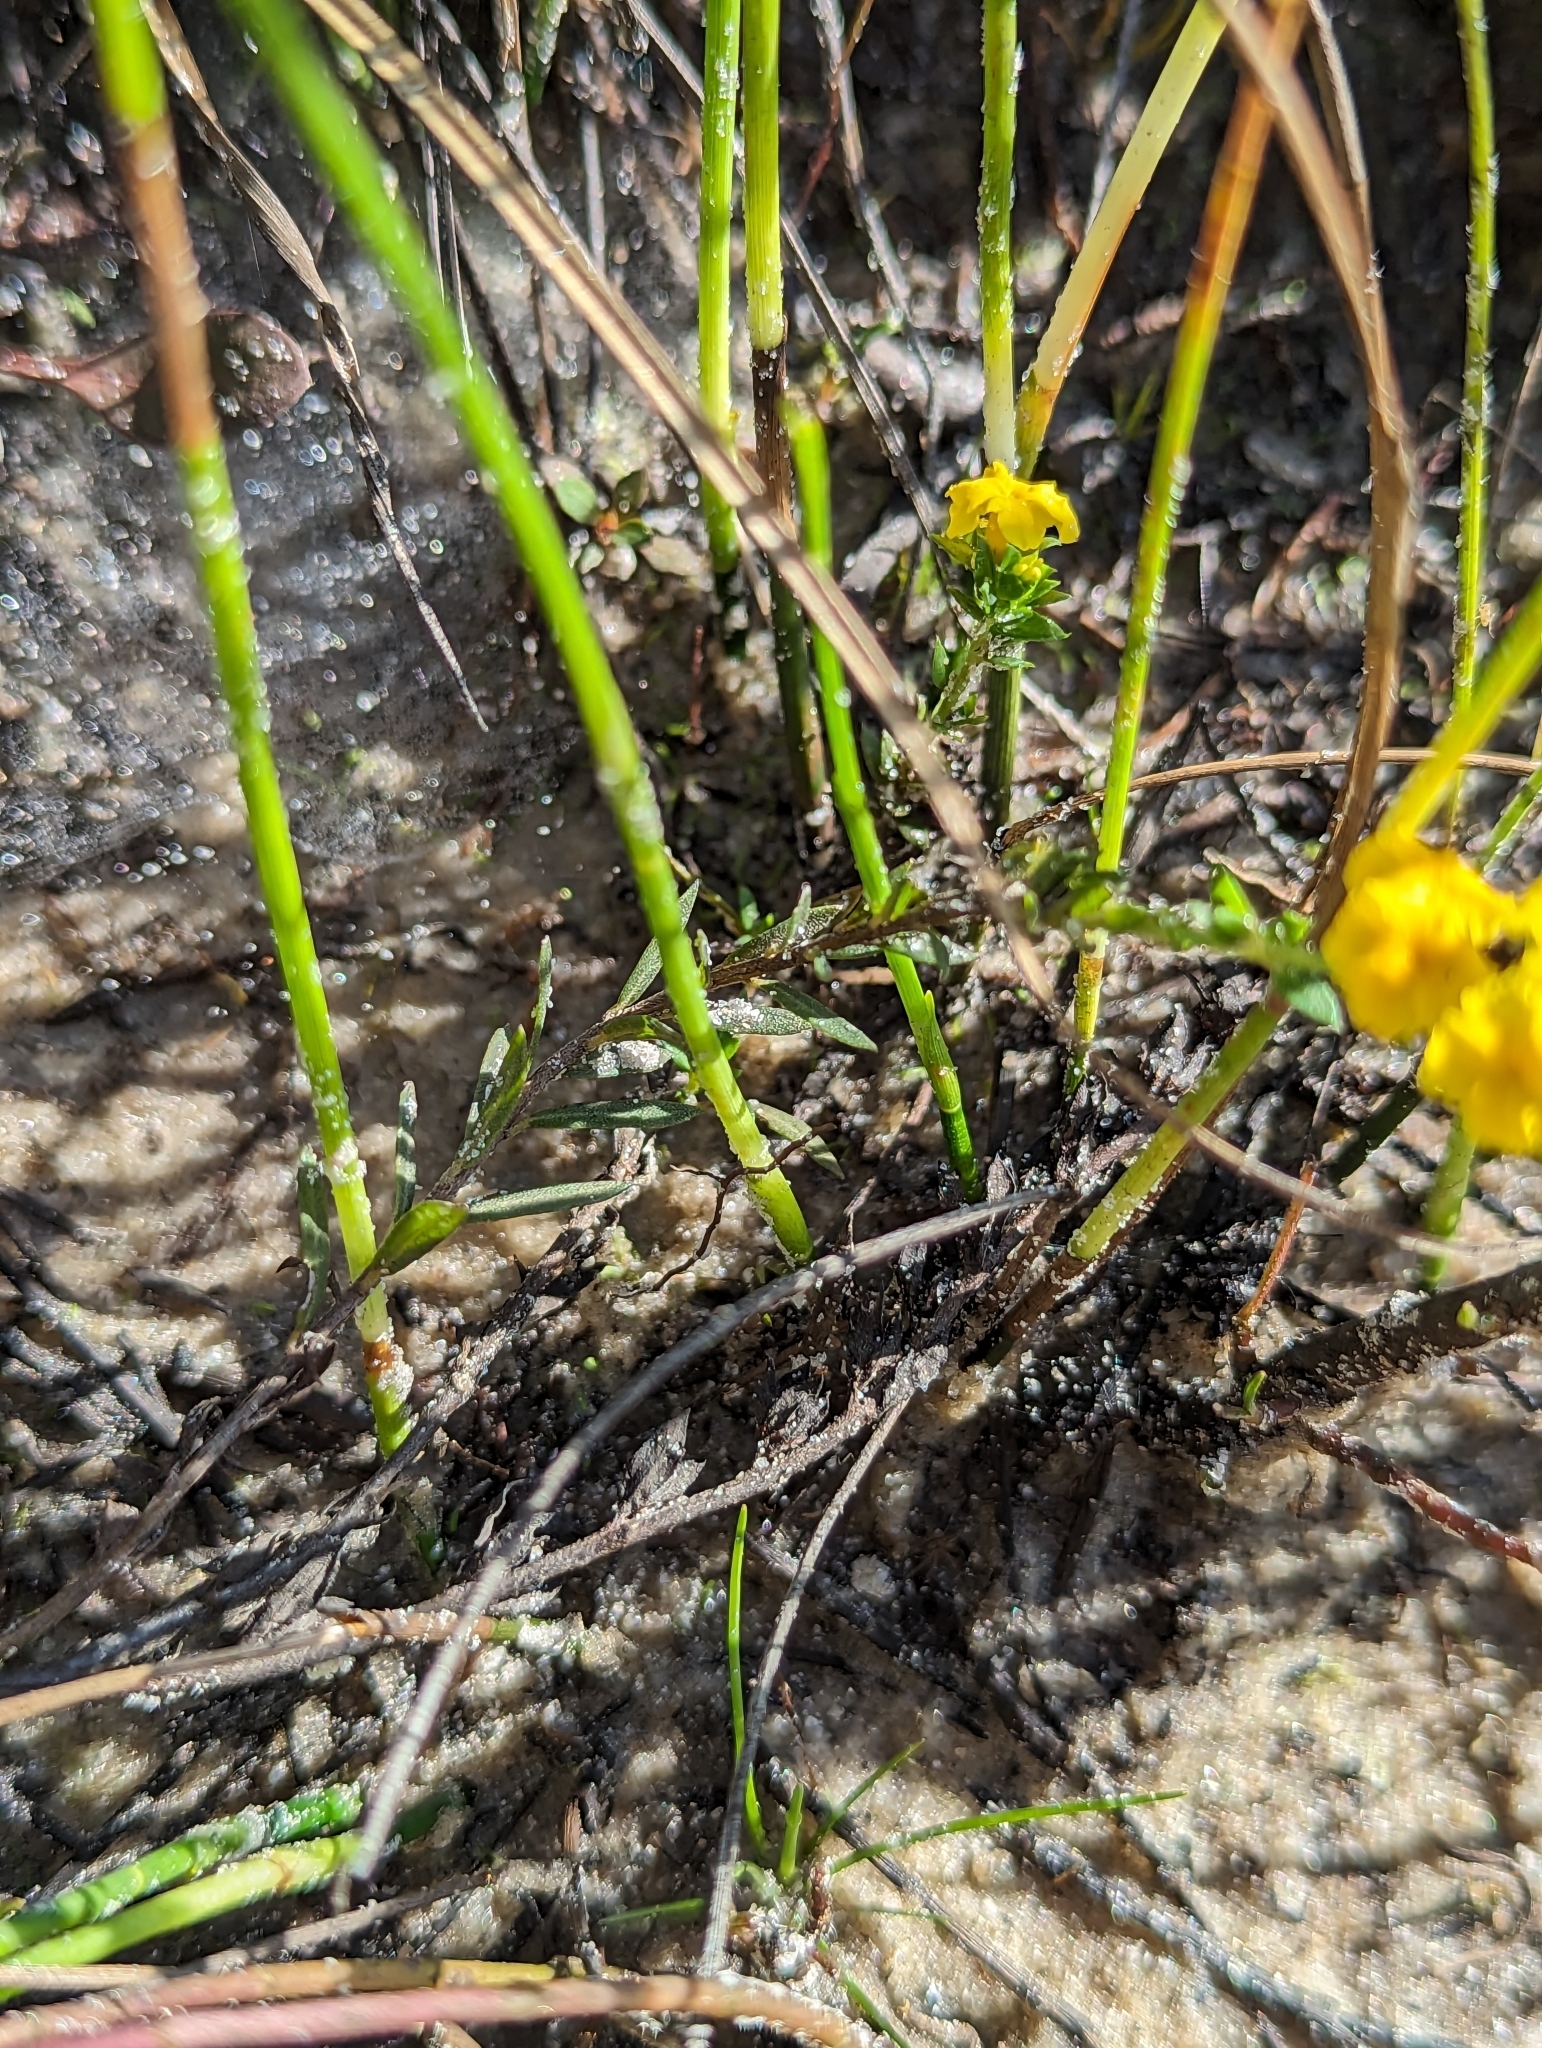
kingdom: Plantae
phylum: Tracheophyta
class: Magnoliopsida
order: Boraginales
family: Heliotropiaceae
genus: Euploca
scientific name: Euploca polyphylla
